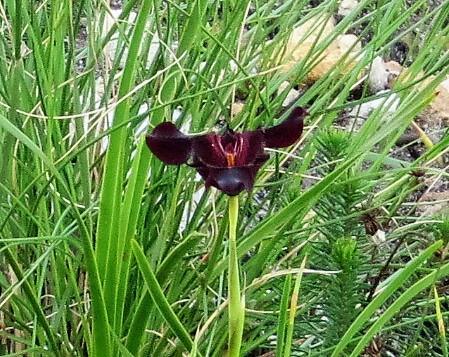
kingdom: Plantae
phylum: Tracheophyta
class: Liliopsida
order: Asparagales
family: Iridaceae
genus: Moraea
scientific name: Moraea lurida
